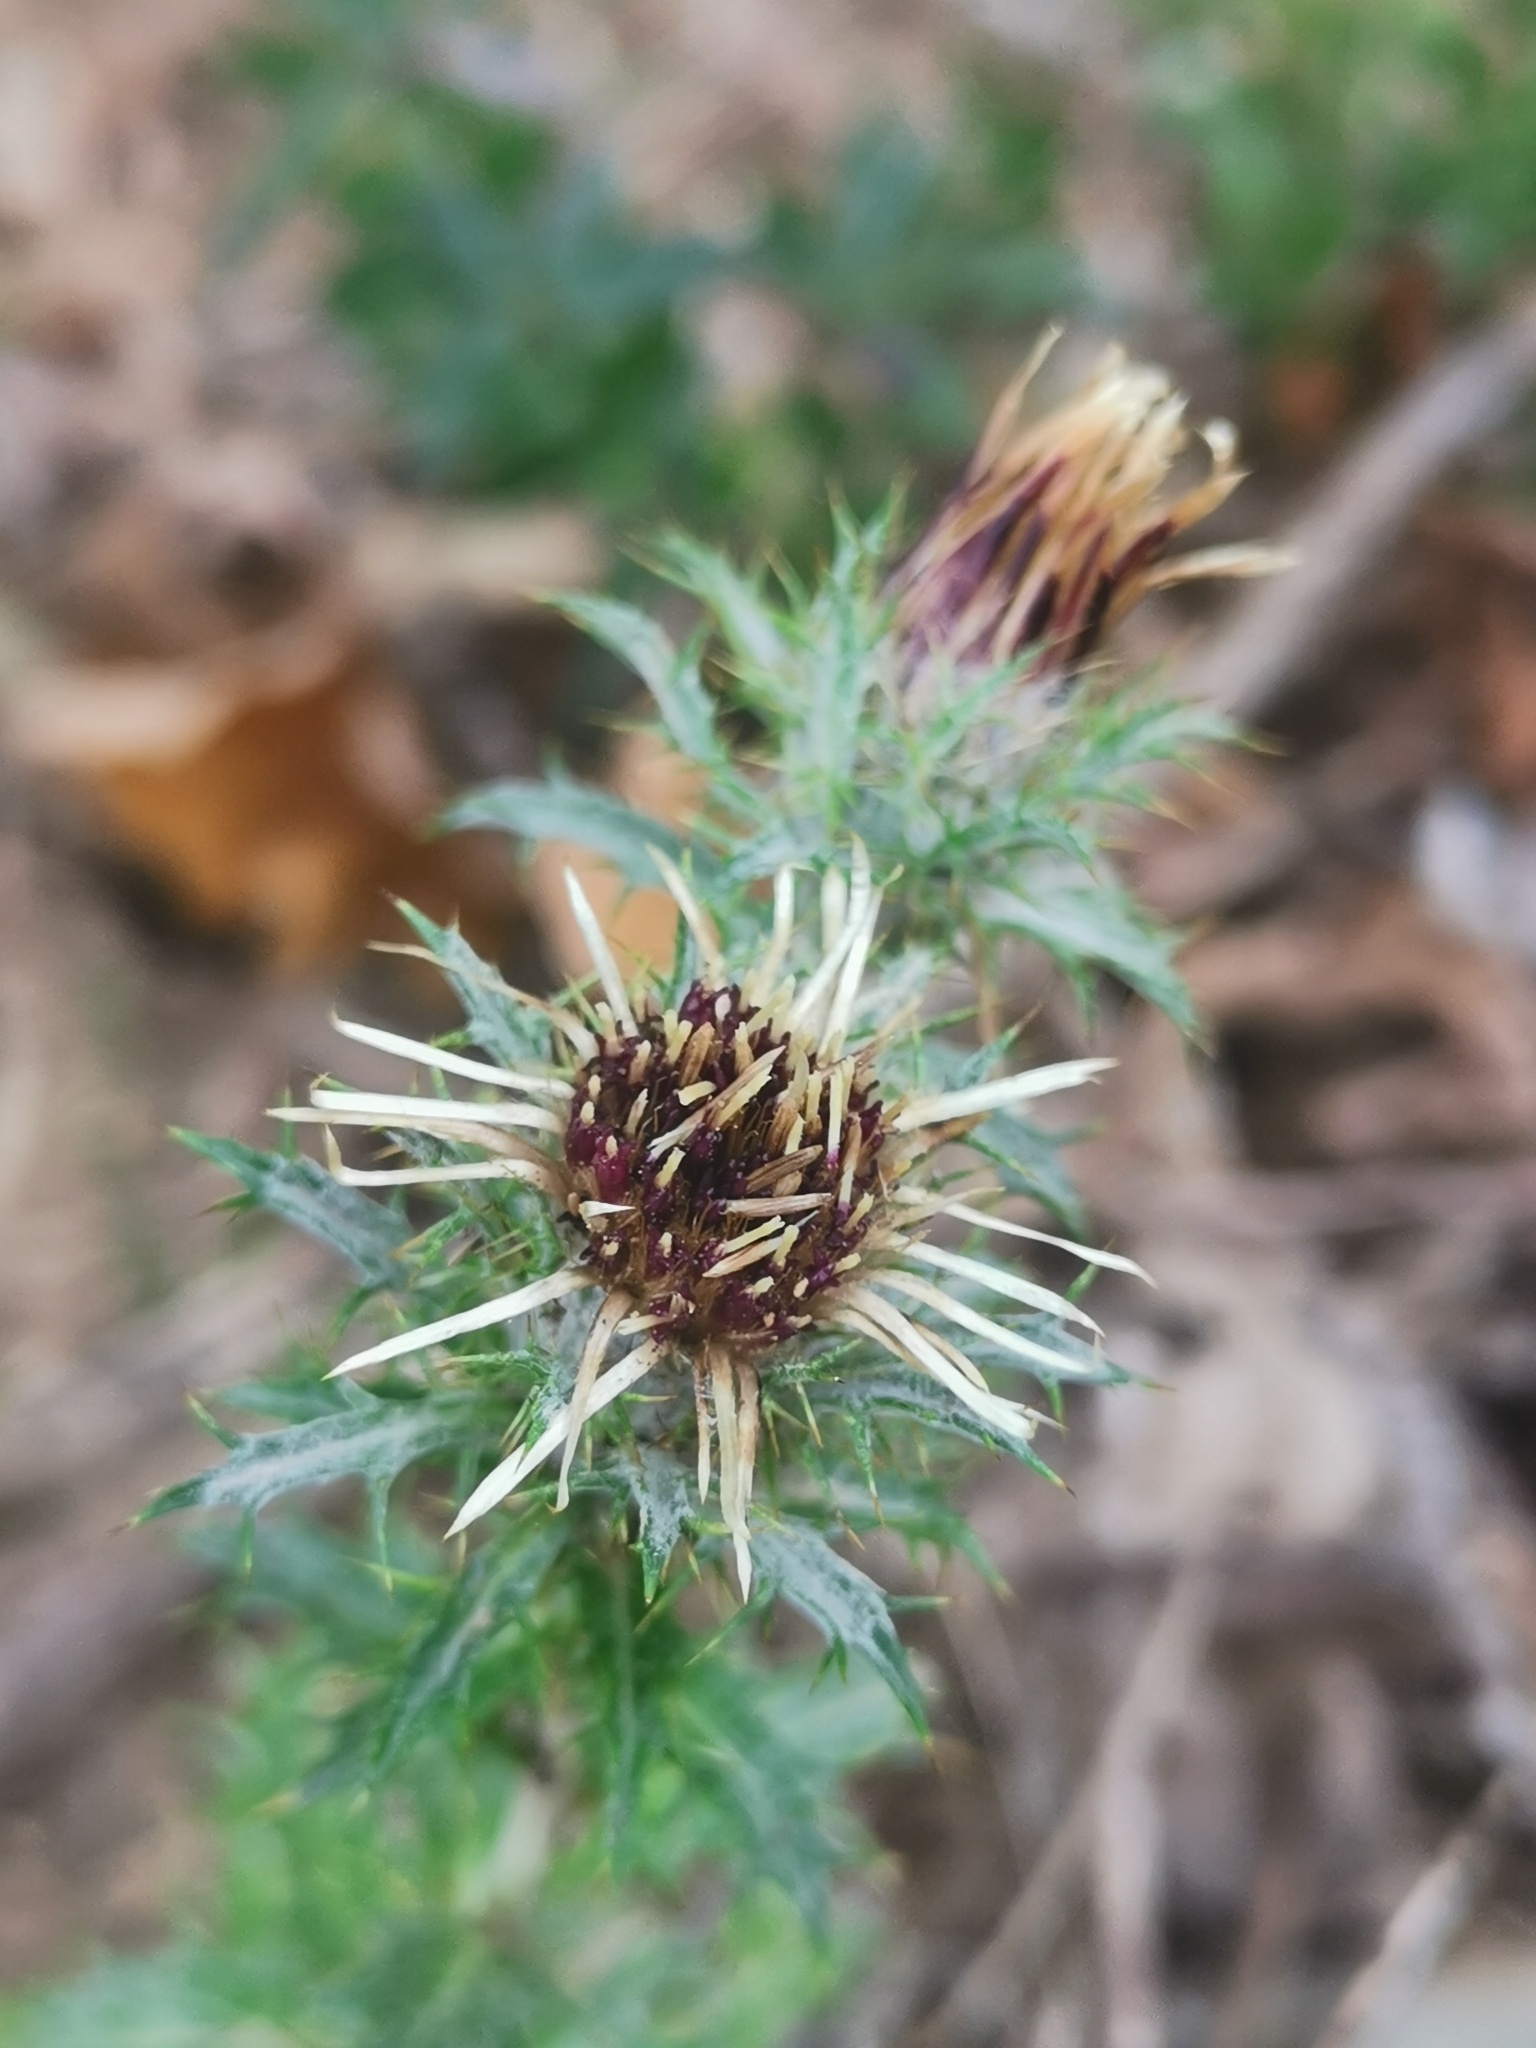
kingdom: Plantae
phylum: Tracheophyta
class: Magnoliopsida
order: Asterales
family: Asteraceae
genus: Carlina
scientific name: Carlina vulgaris
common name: Carline thistle
